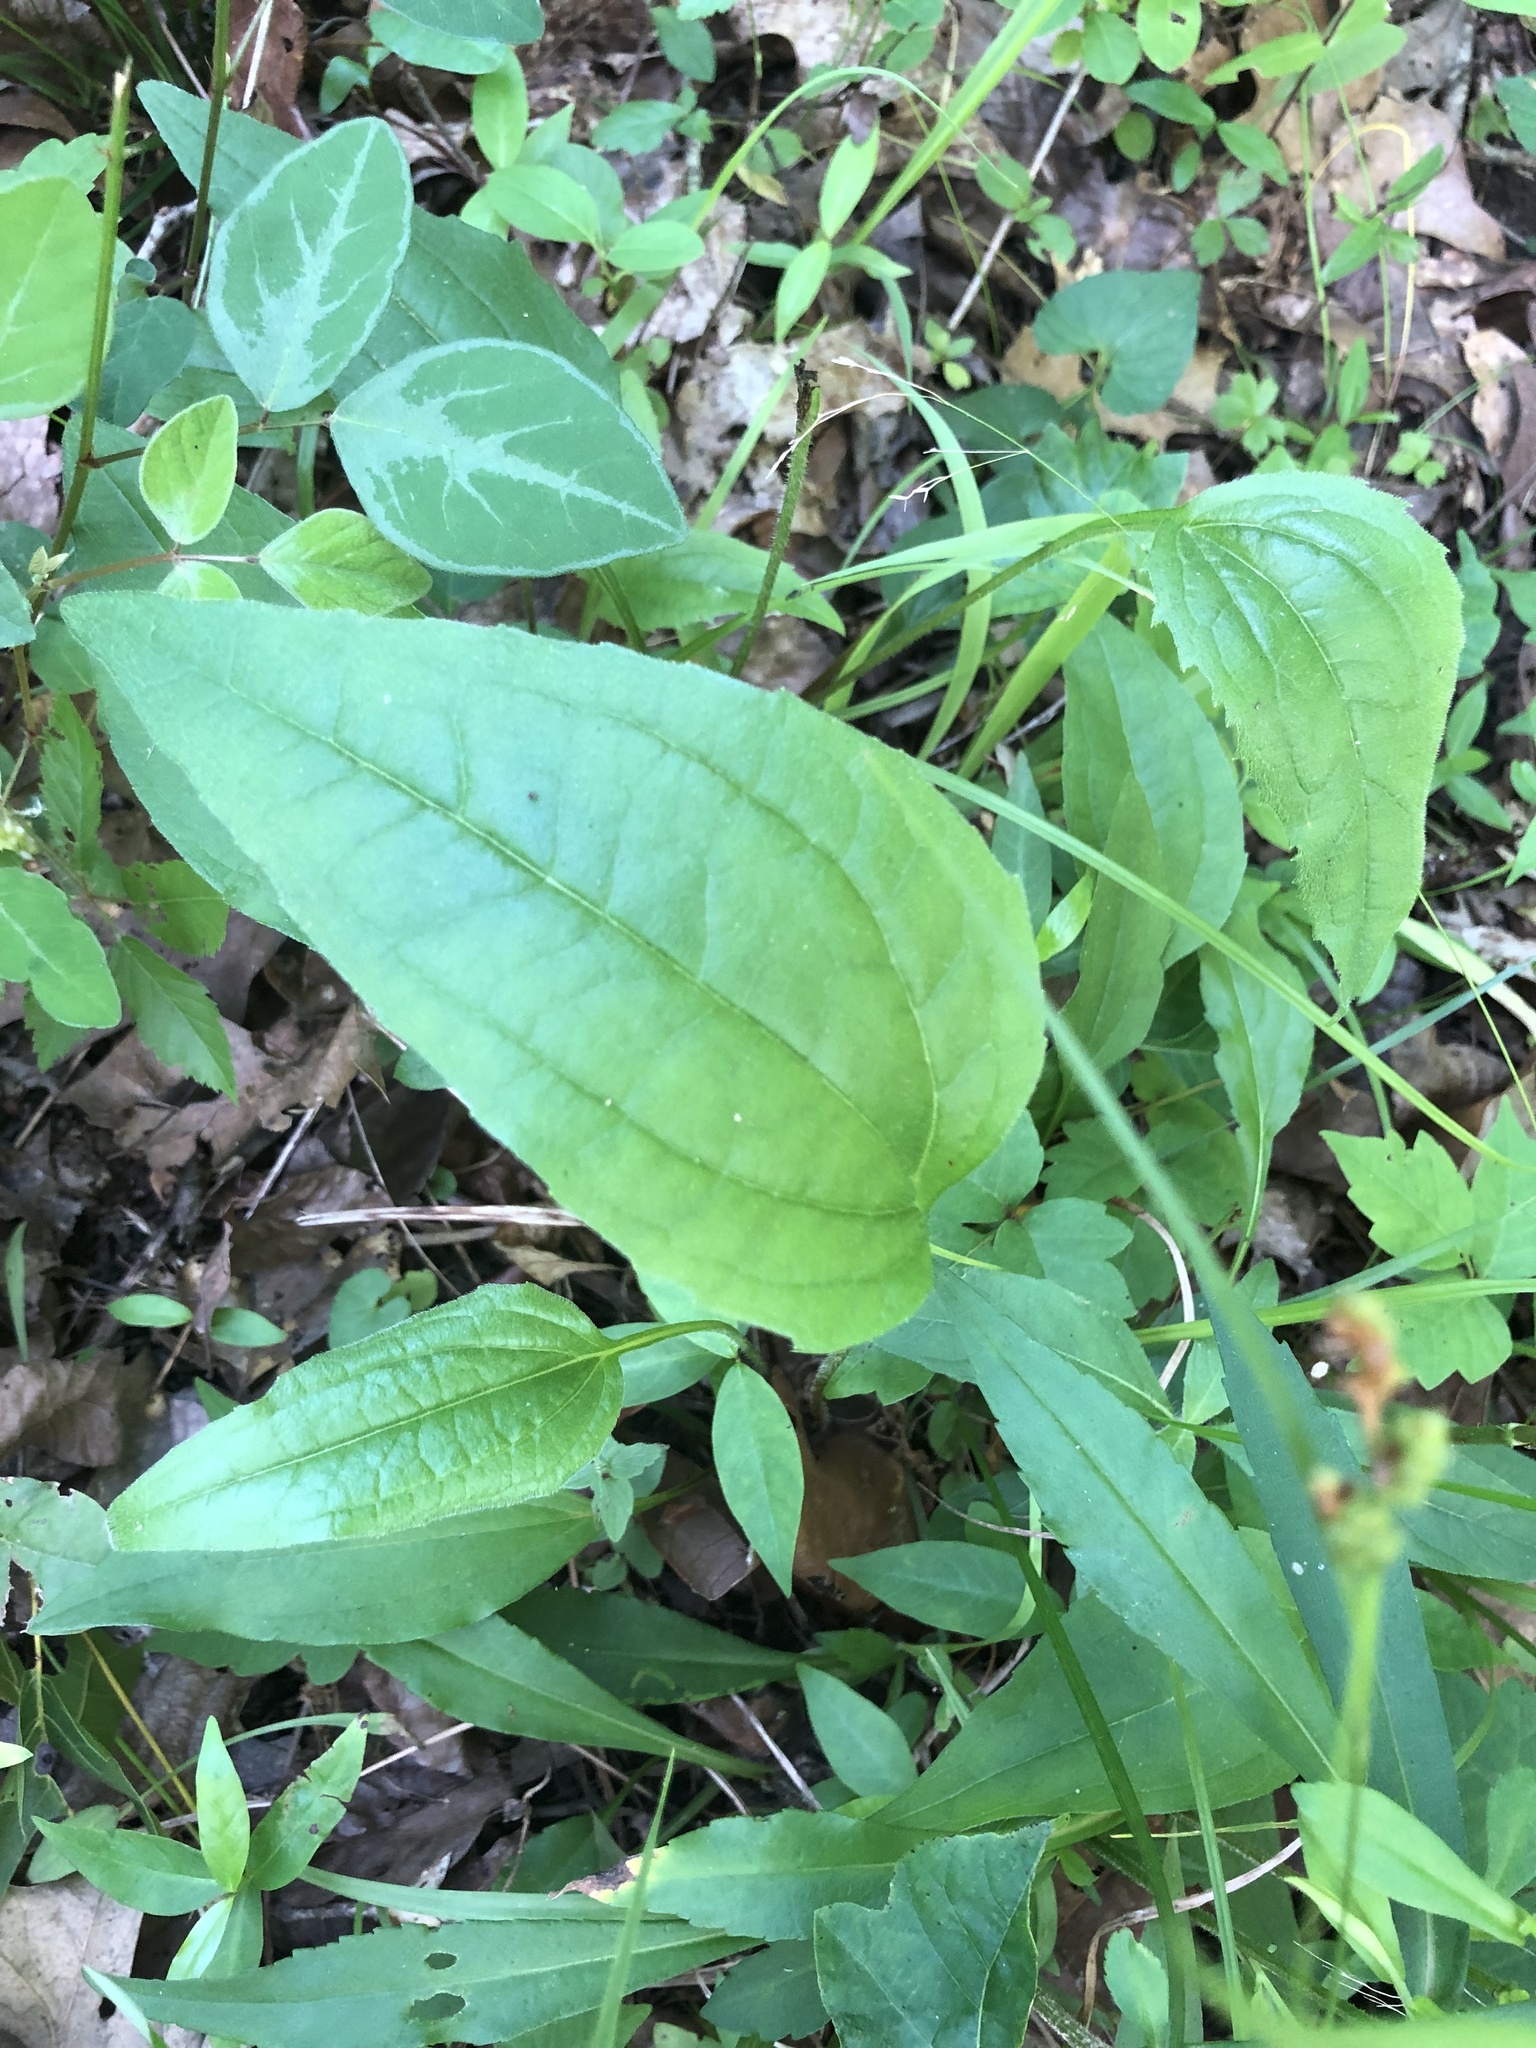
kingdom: Plantae
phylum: Tracheophyta
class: Magnoliopsida
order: Asterales
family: Asteraceae
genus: Echinacea
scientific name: Echinacea purpurea
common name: Broad-leaved purple coneflower
